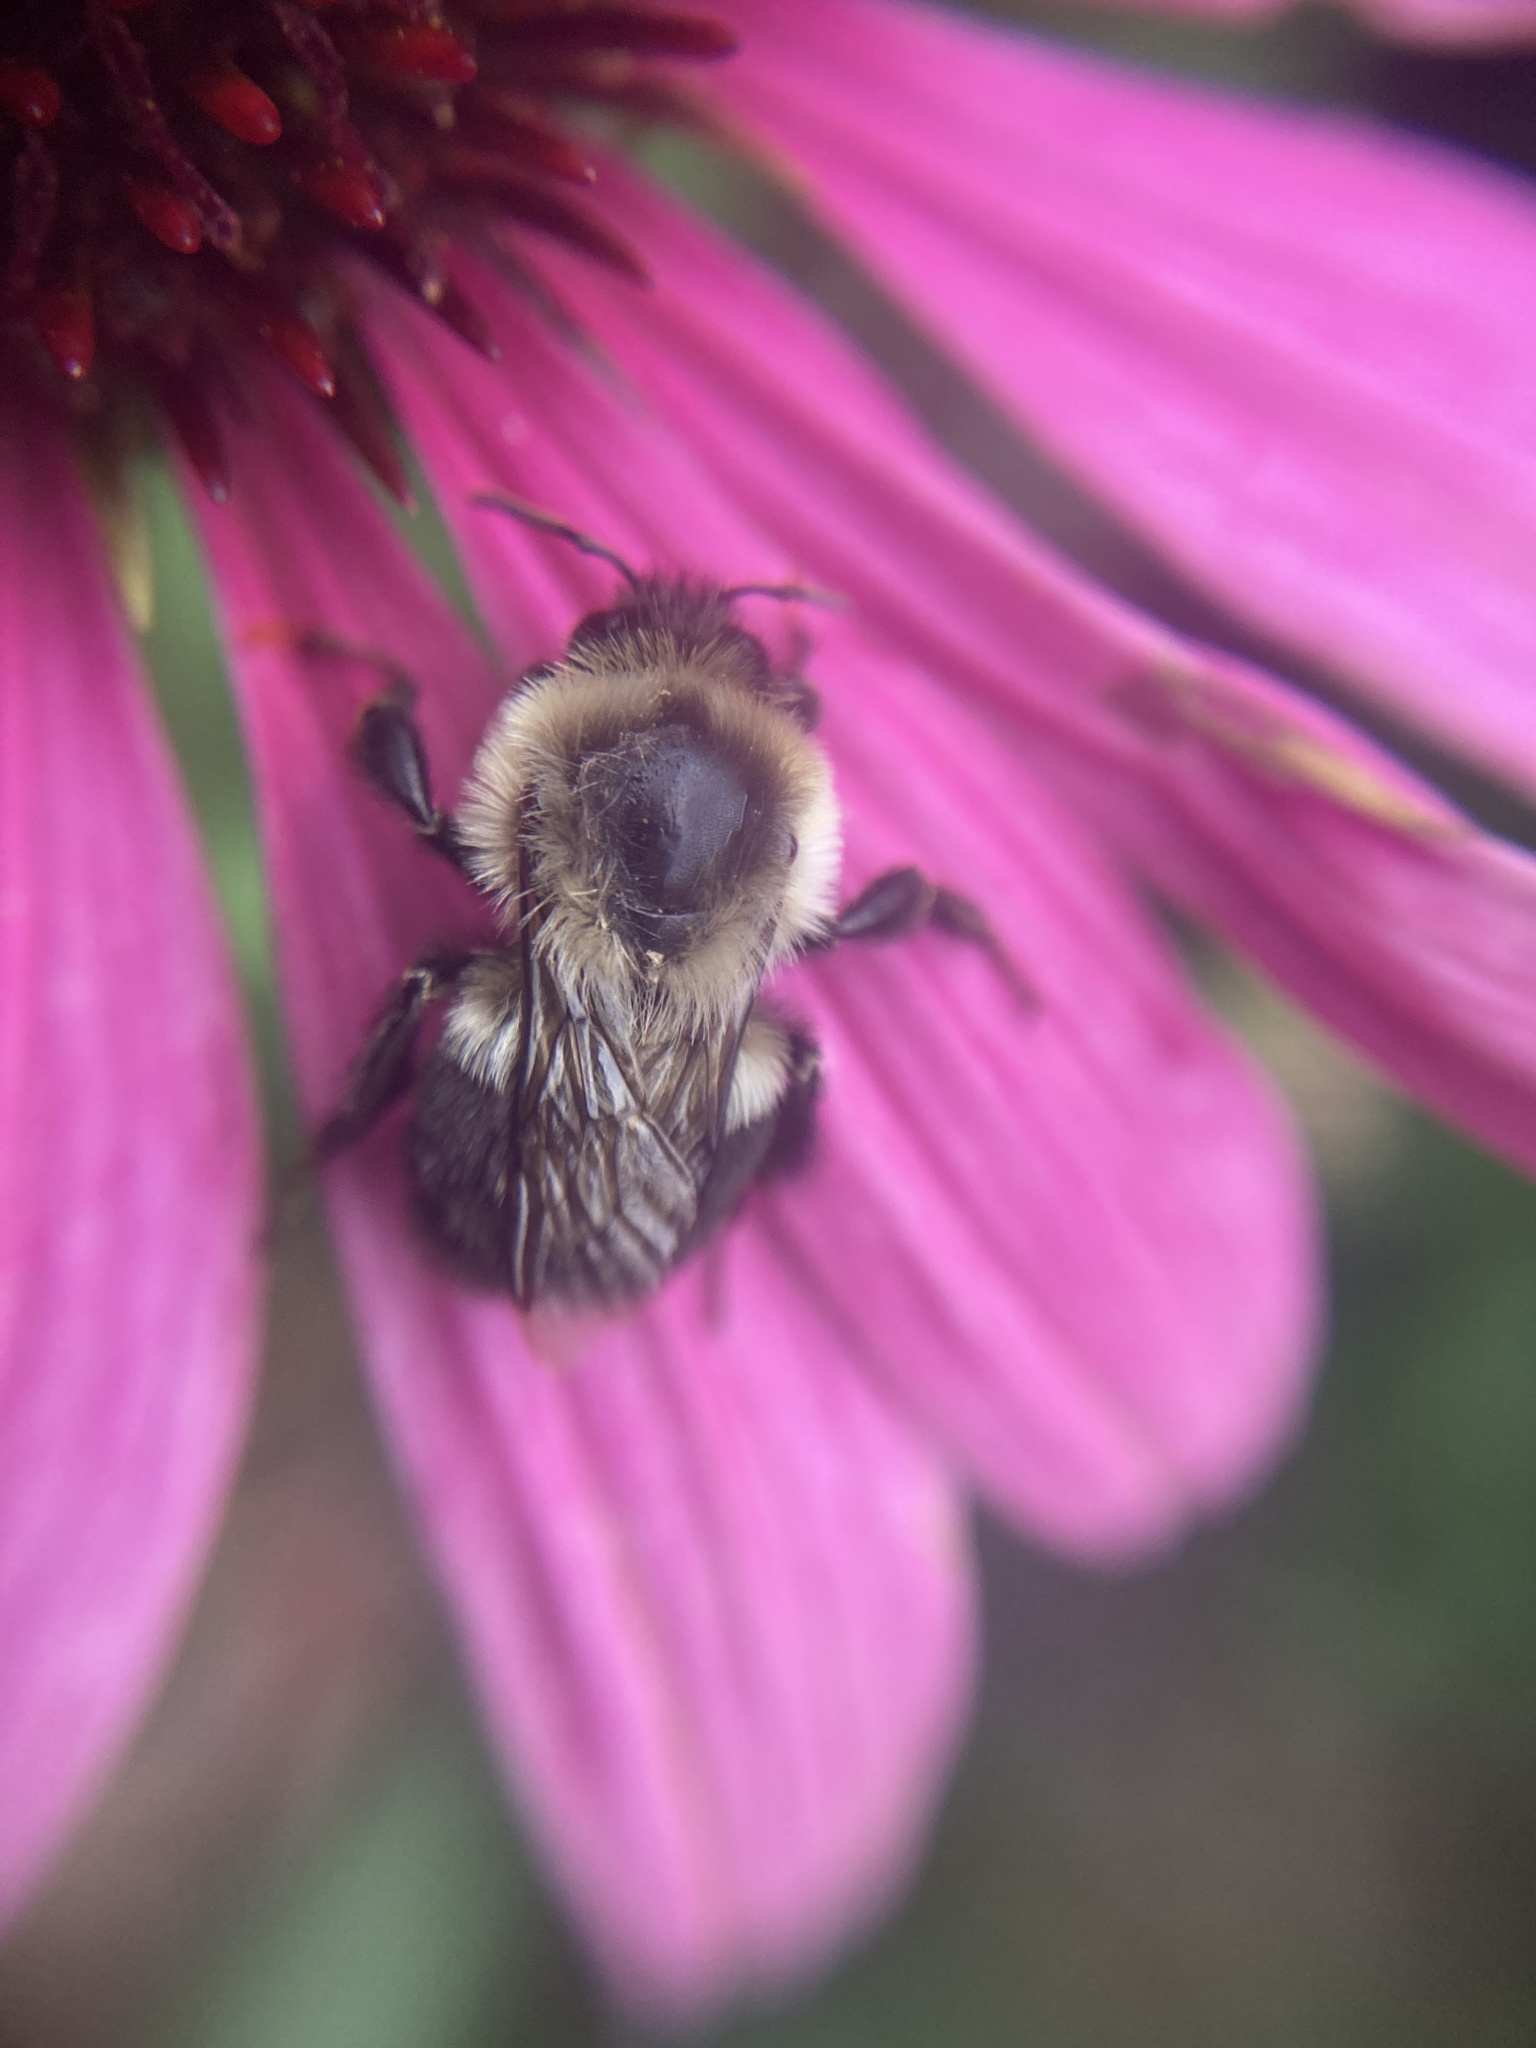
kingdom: Animalia
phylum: Arthropoda
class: Insecta
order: Hymenoptera
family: Apidae
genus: Bombus
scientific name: Bombus impatiens
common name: Common eastern bumble bee
